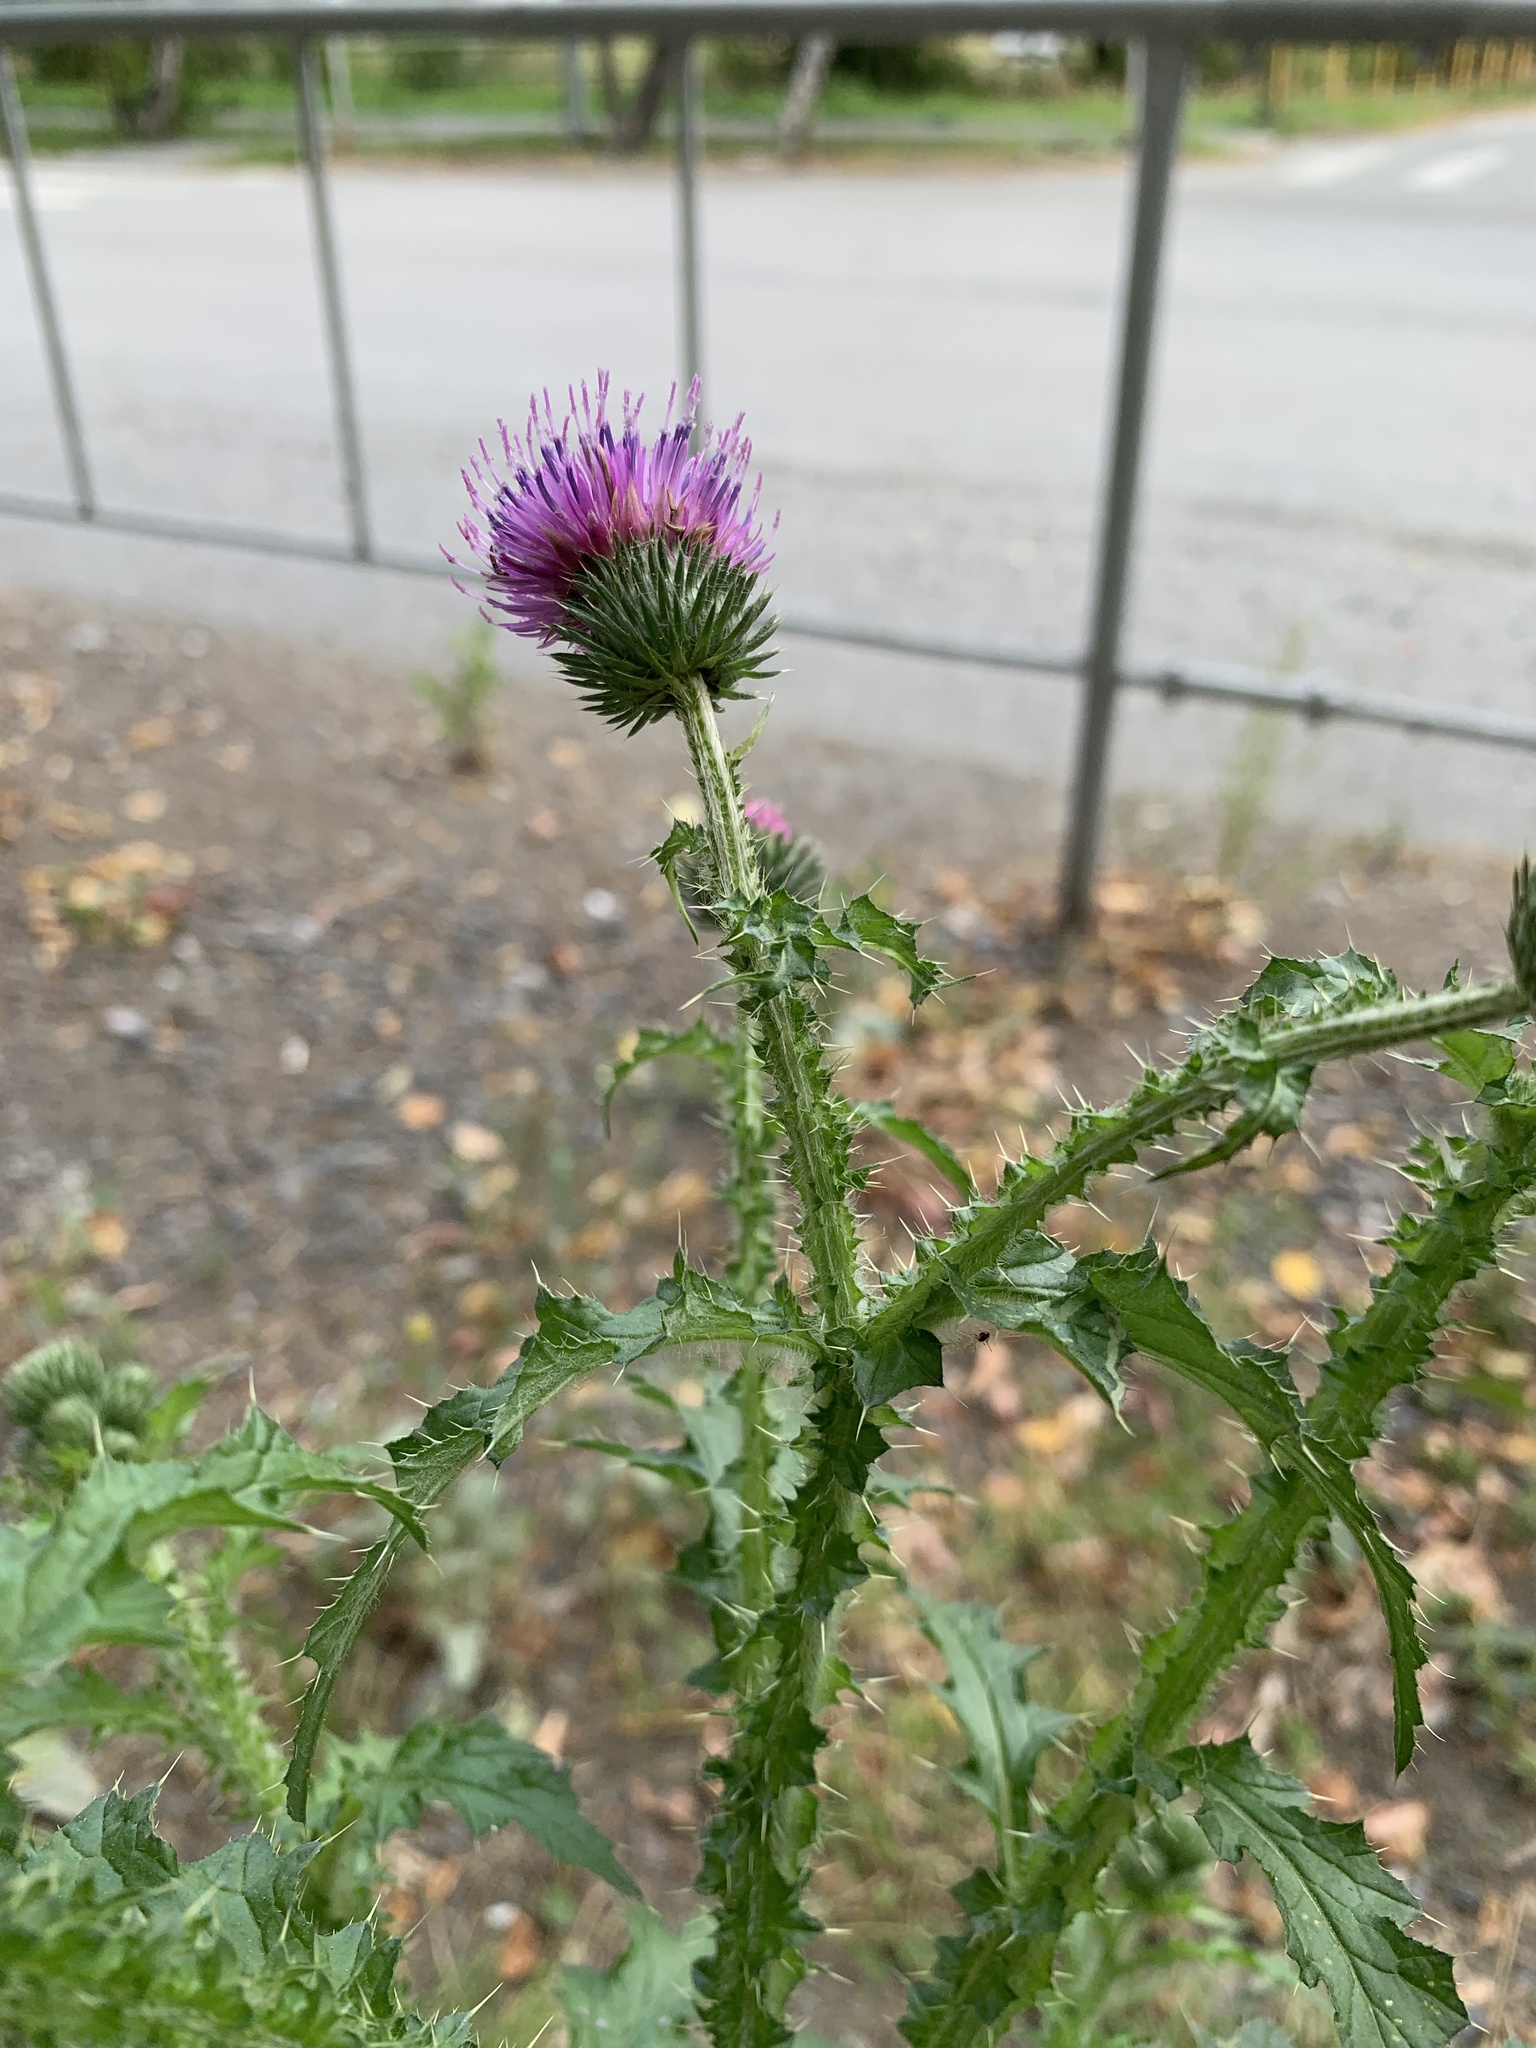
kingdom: Plantae
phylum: Tracheophyta
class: Magnoliopsida
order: Asterales
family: Asteraceae
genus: Carduus
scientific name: Carduus crispus
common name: Welted thistle
